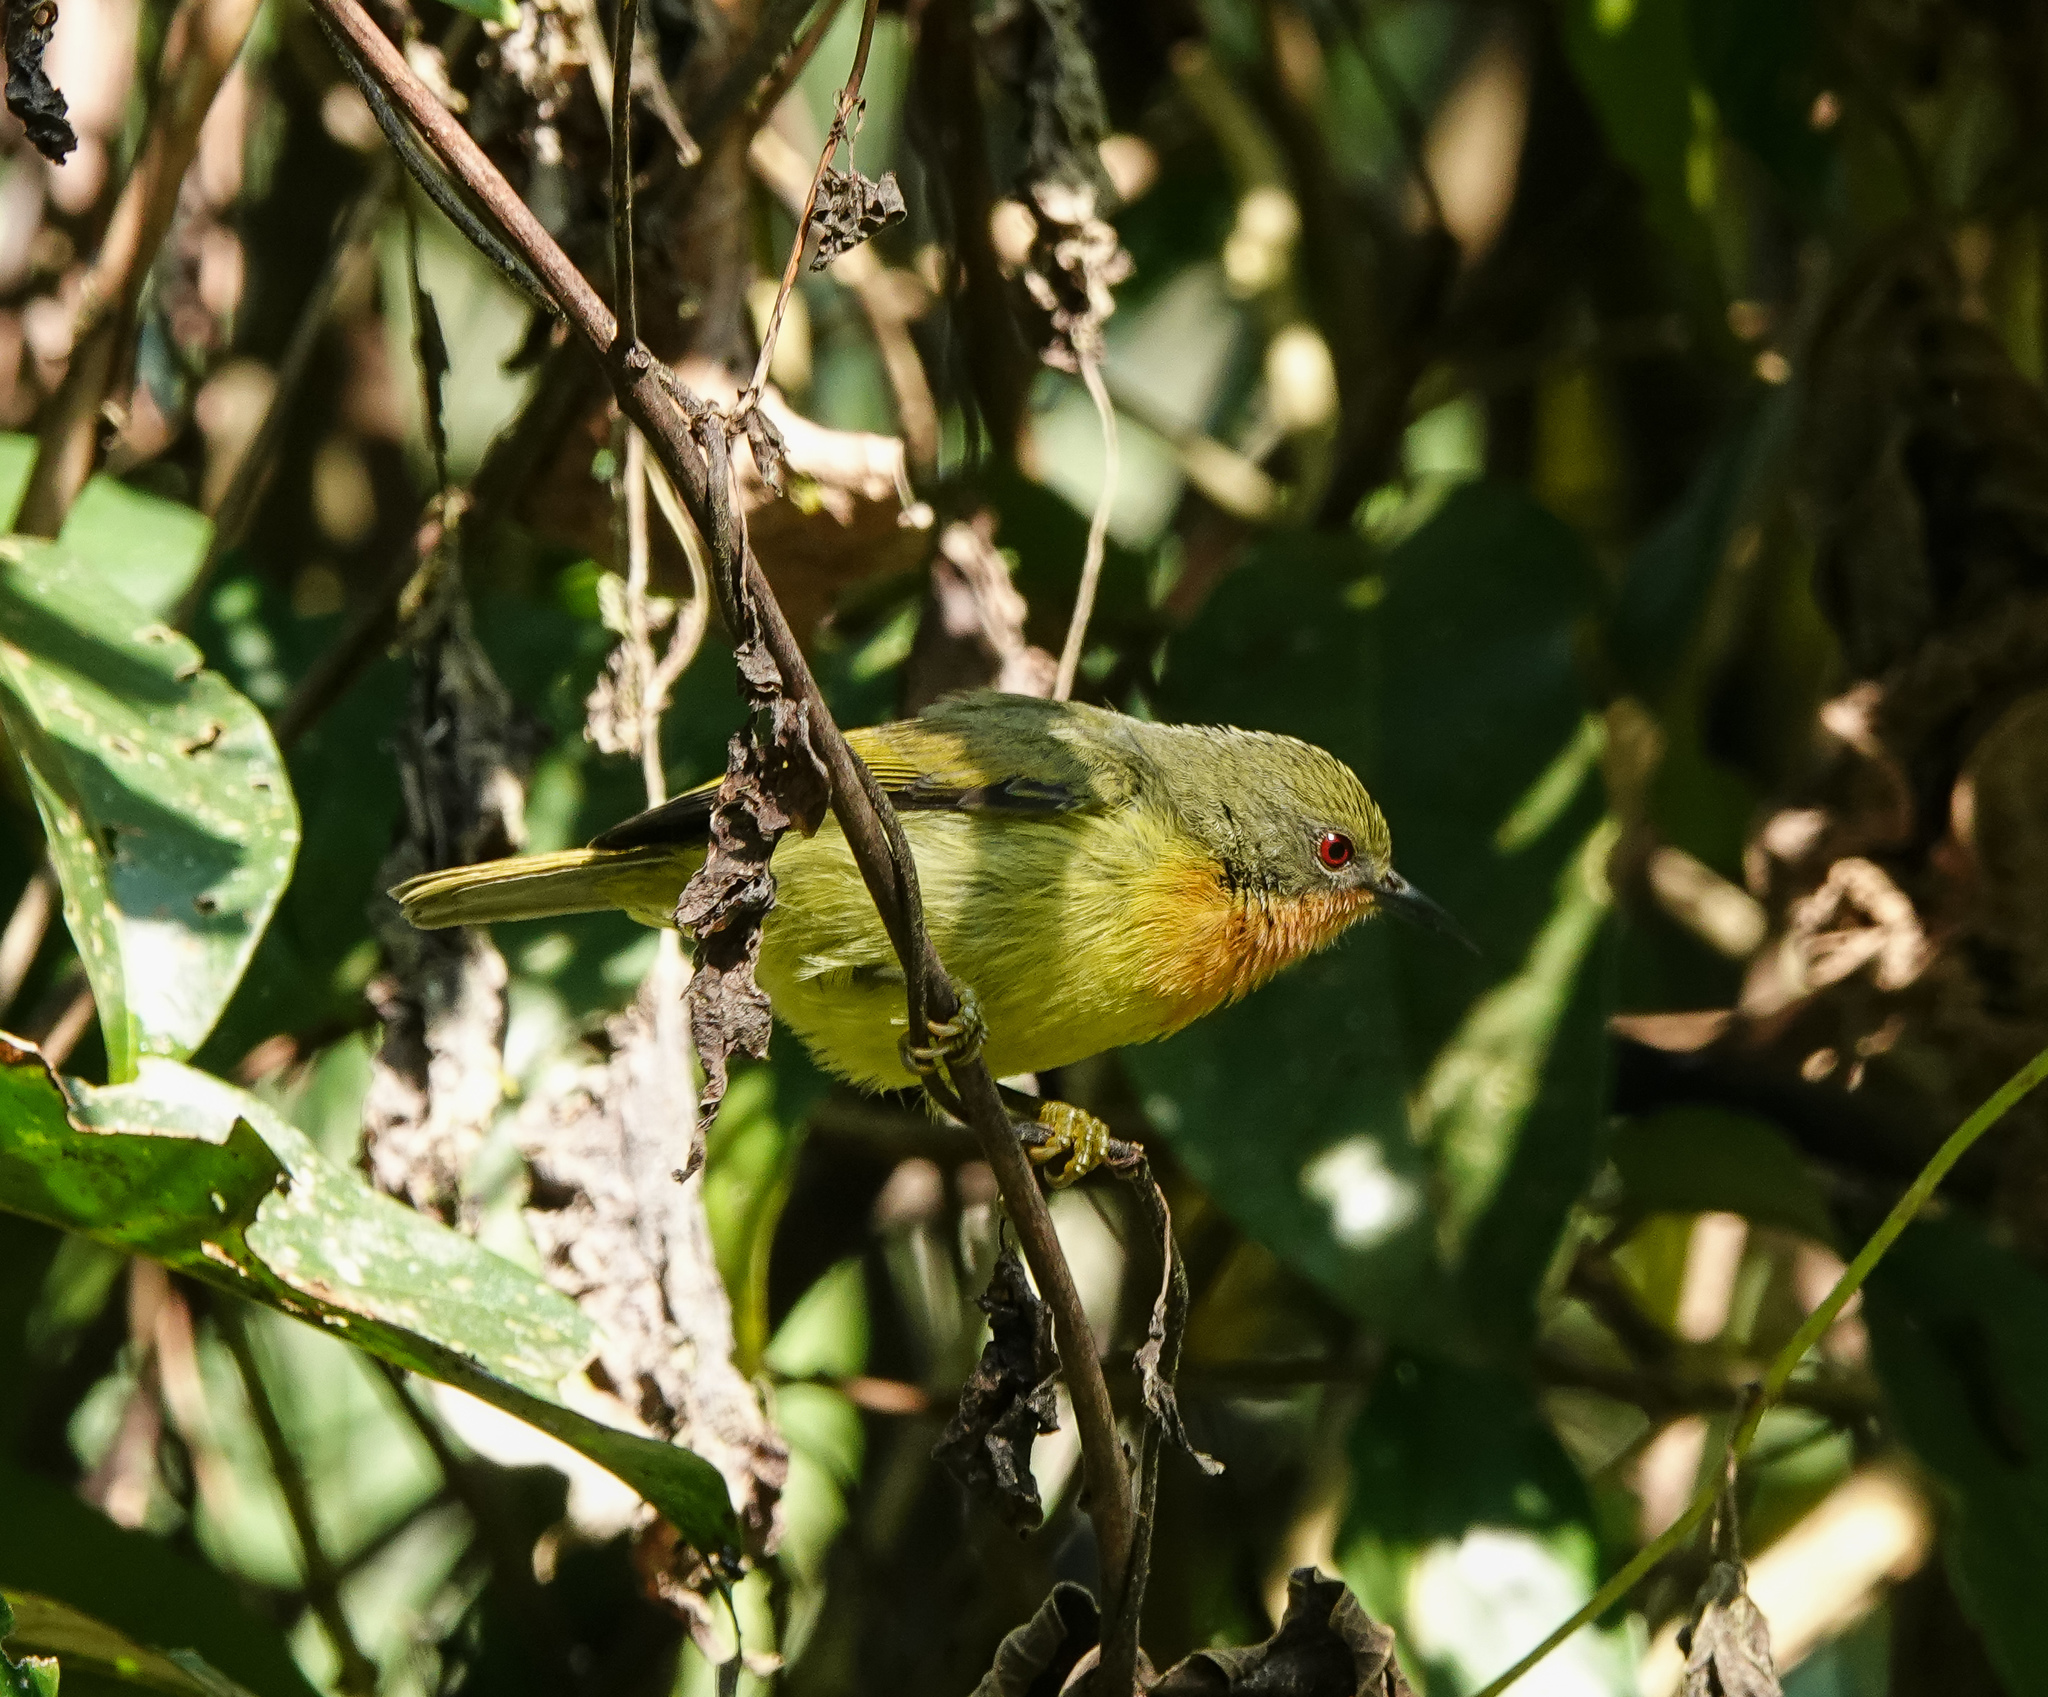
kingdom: Animalia
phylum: Chordata
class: Aves
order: Passeriformes
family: Nectariniidae
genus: Chalcoparia
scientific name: Chalcoparia singalensis
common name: Ruby-cheeked sunbird
